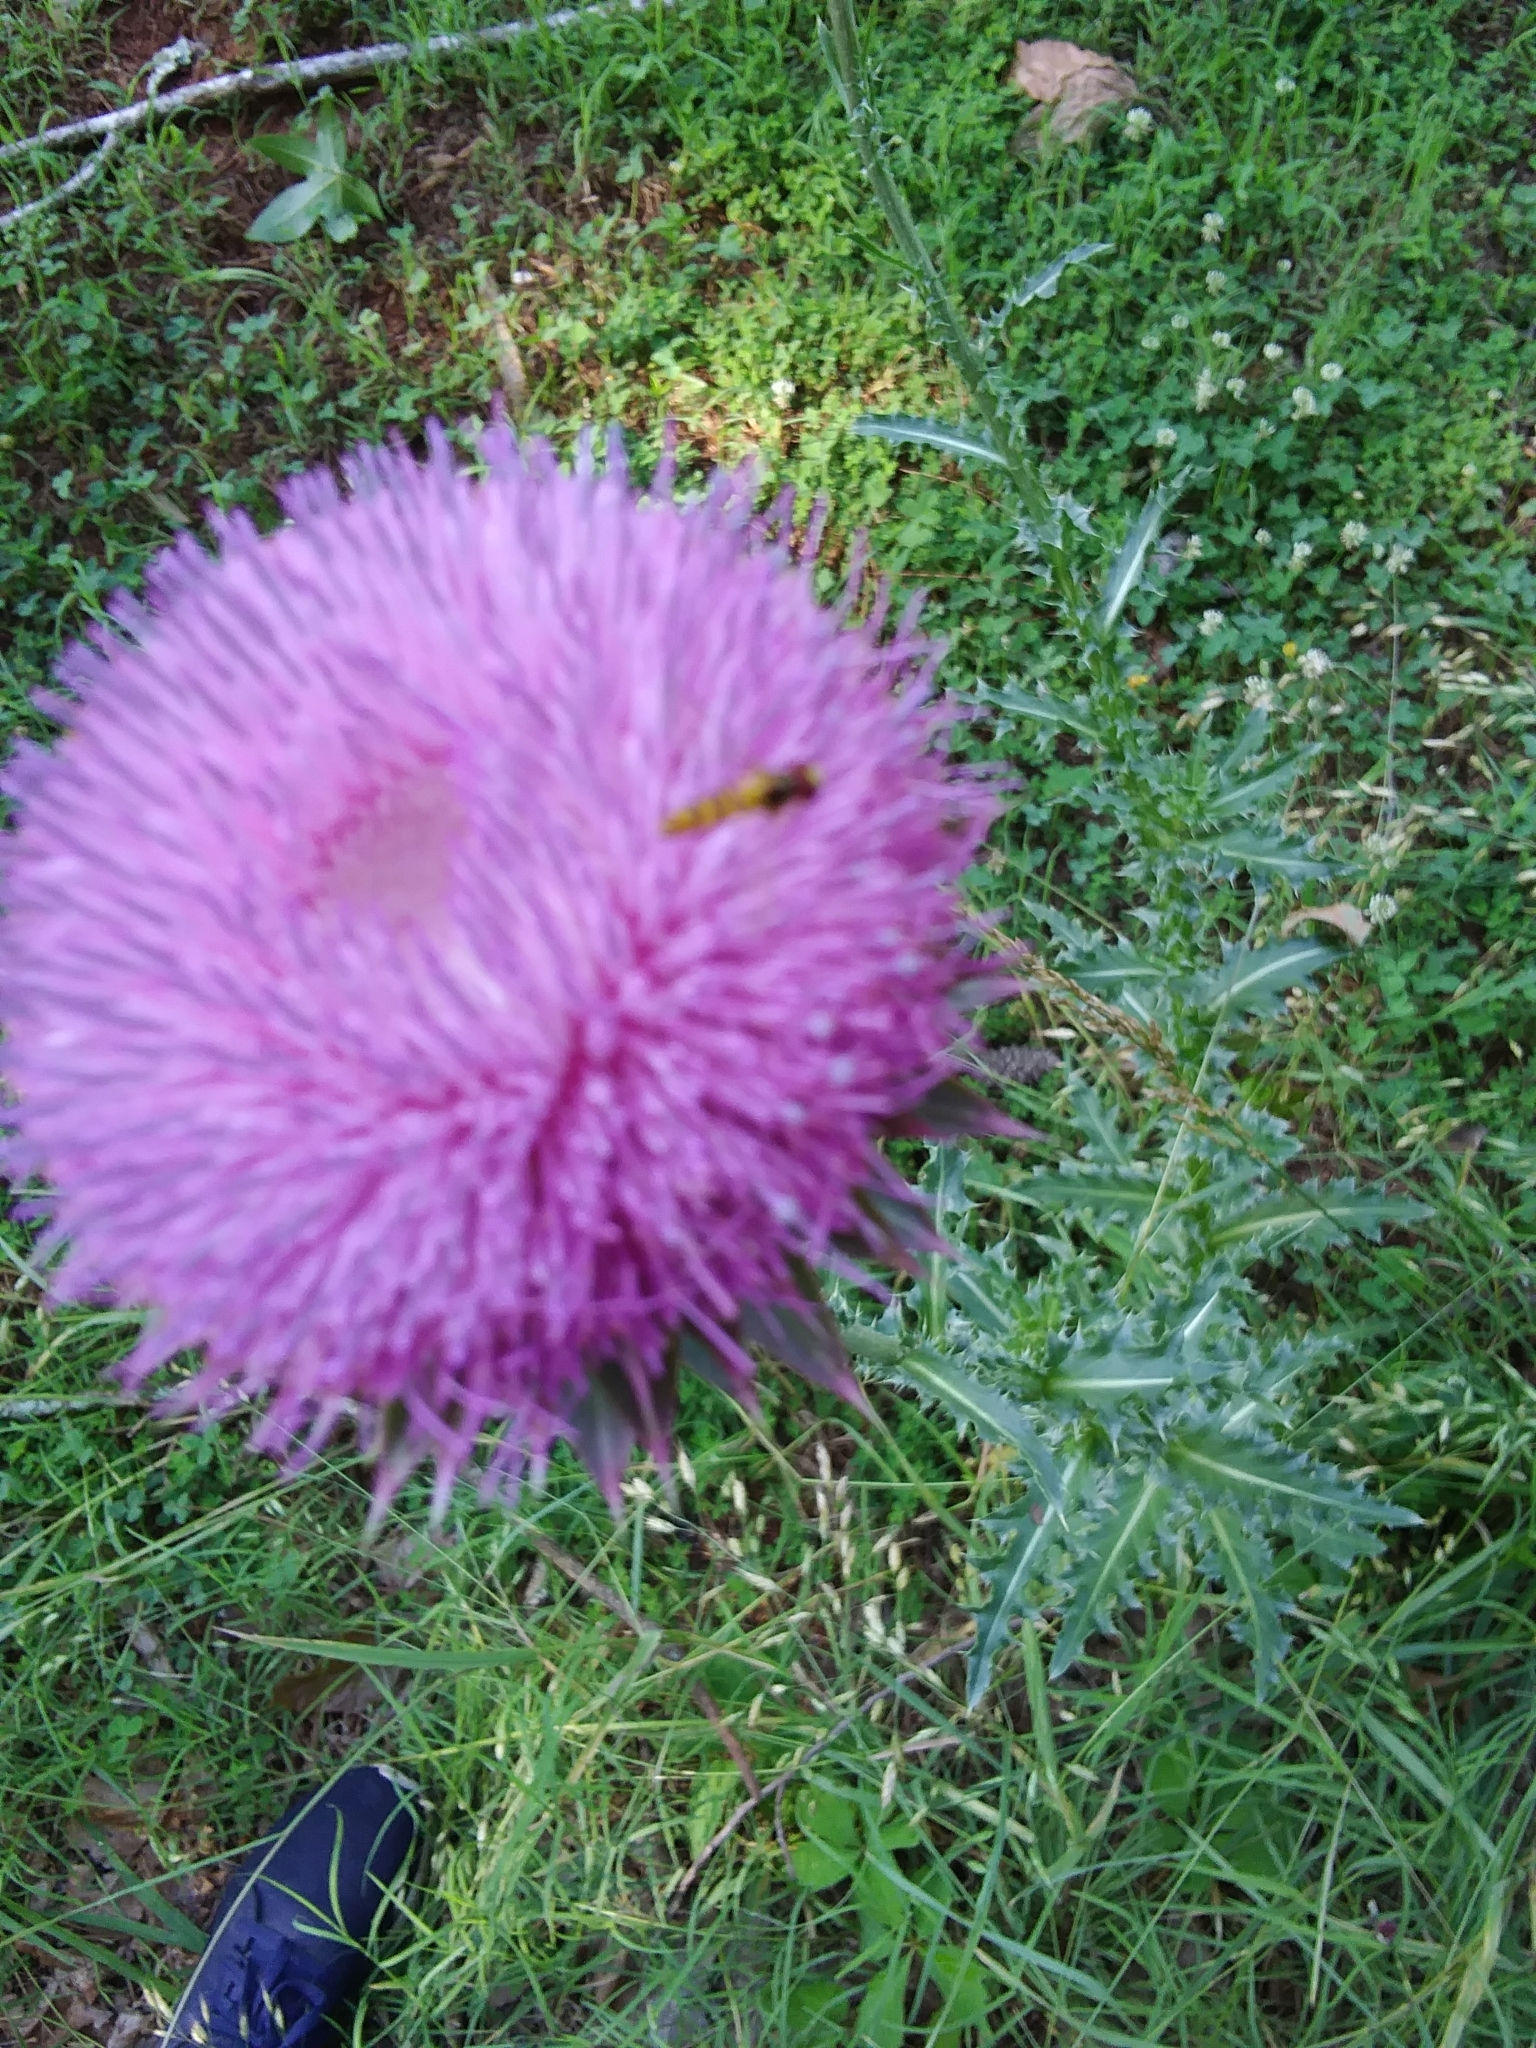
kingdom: Animalia
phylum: Arthropoda
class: Insecta
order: Diptera
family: Syrphidae
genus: Allograpta
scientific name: Allograpta
